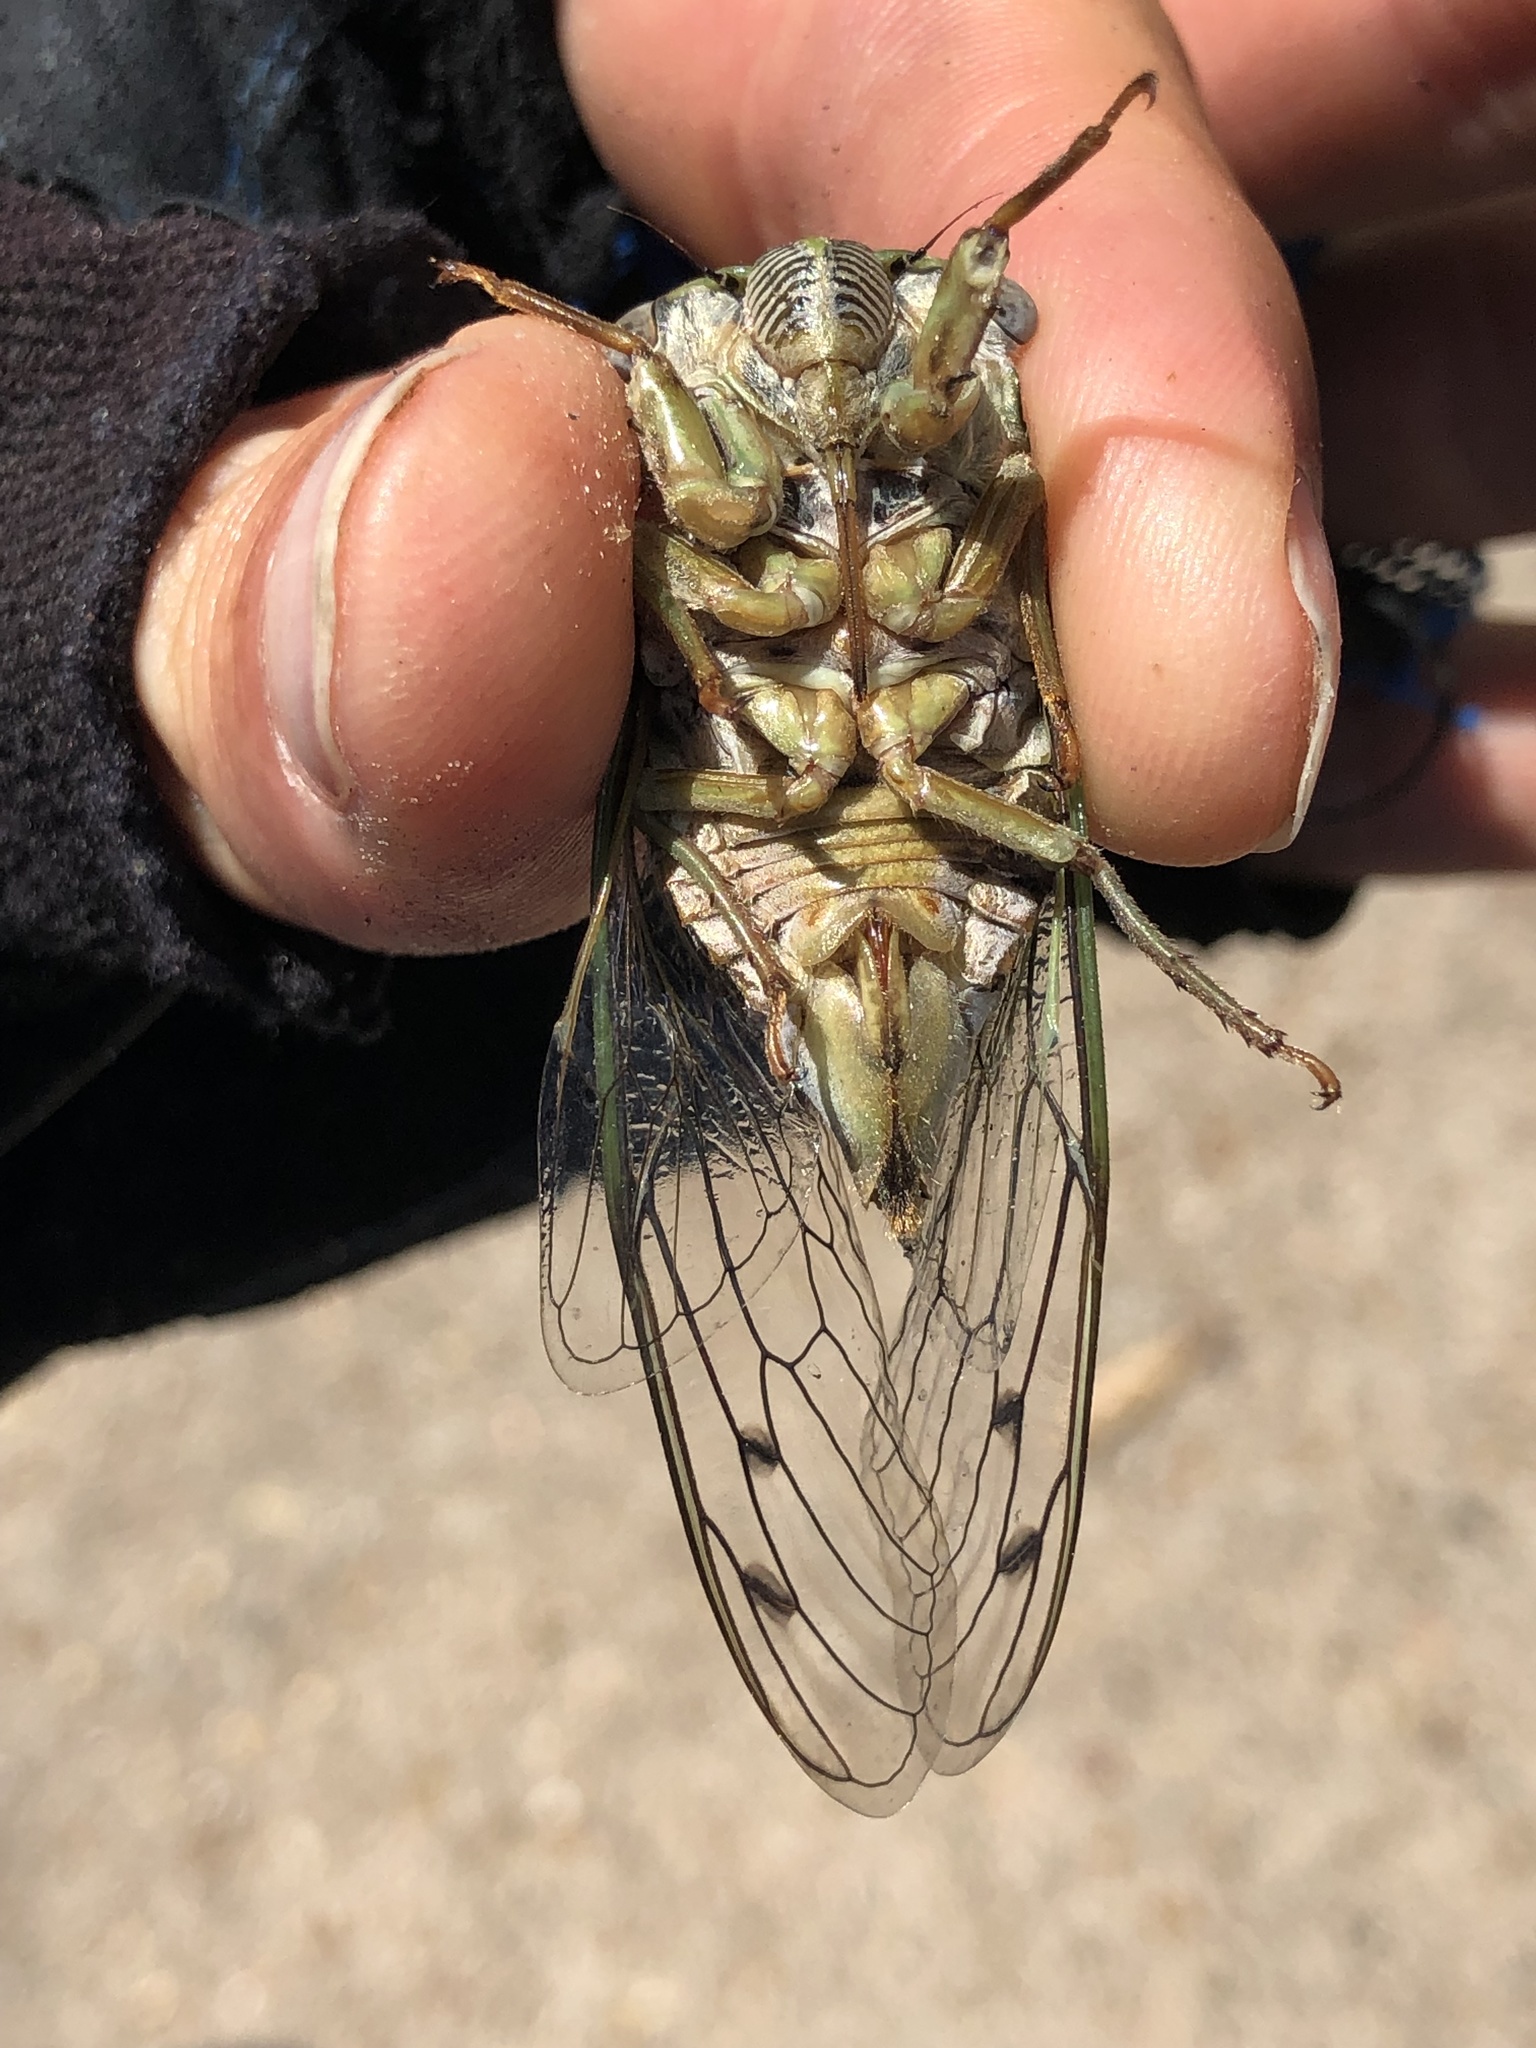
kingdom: Animalia
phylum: Arthropoda
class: Insecta
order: Hemiptera
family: Cicadidae
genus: Megatibicen
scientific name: Megatibicen resh
